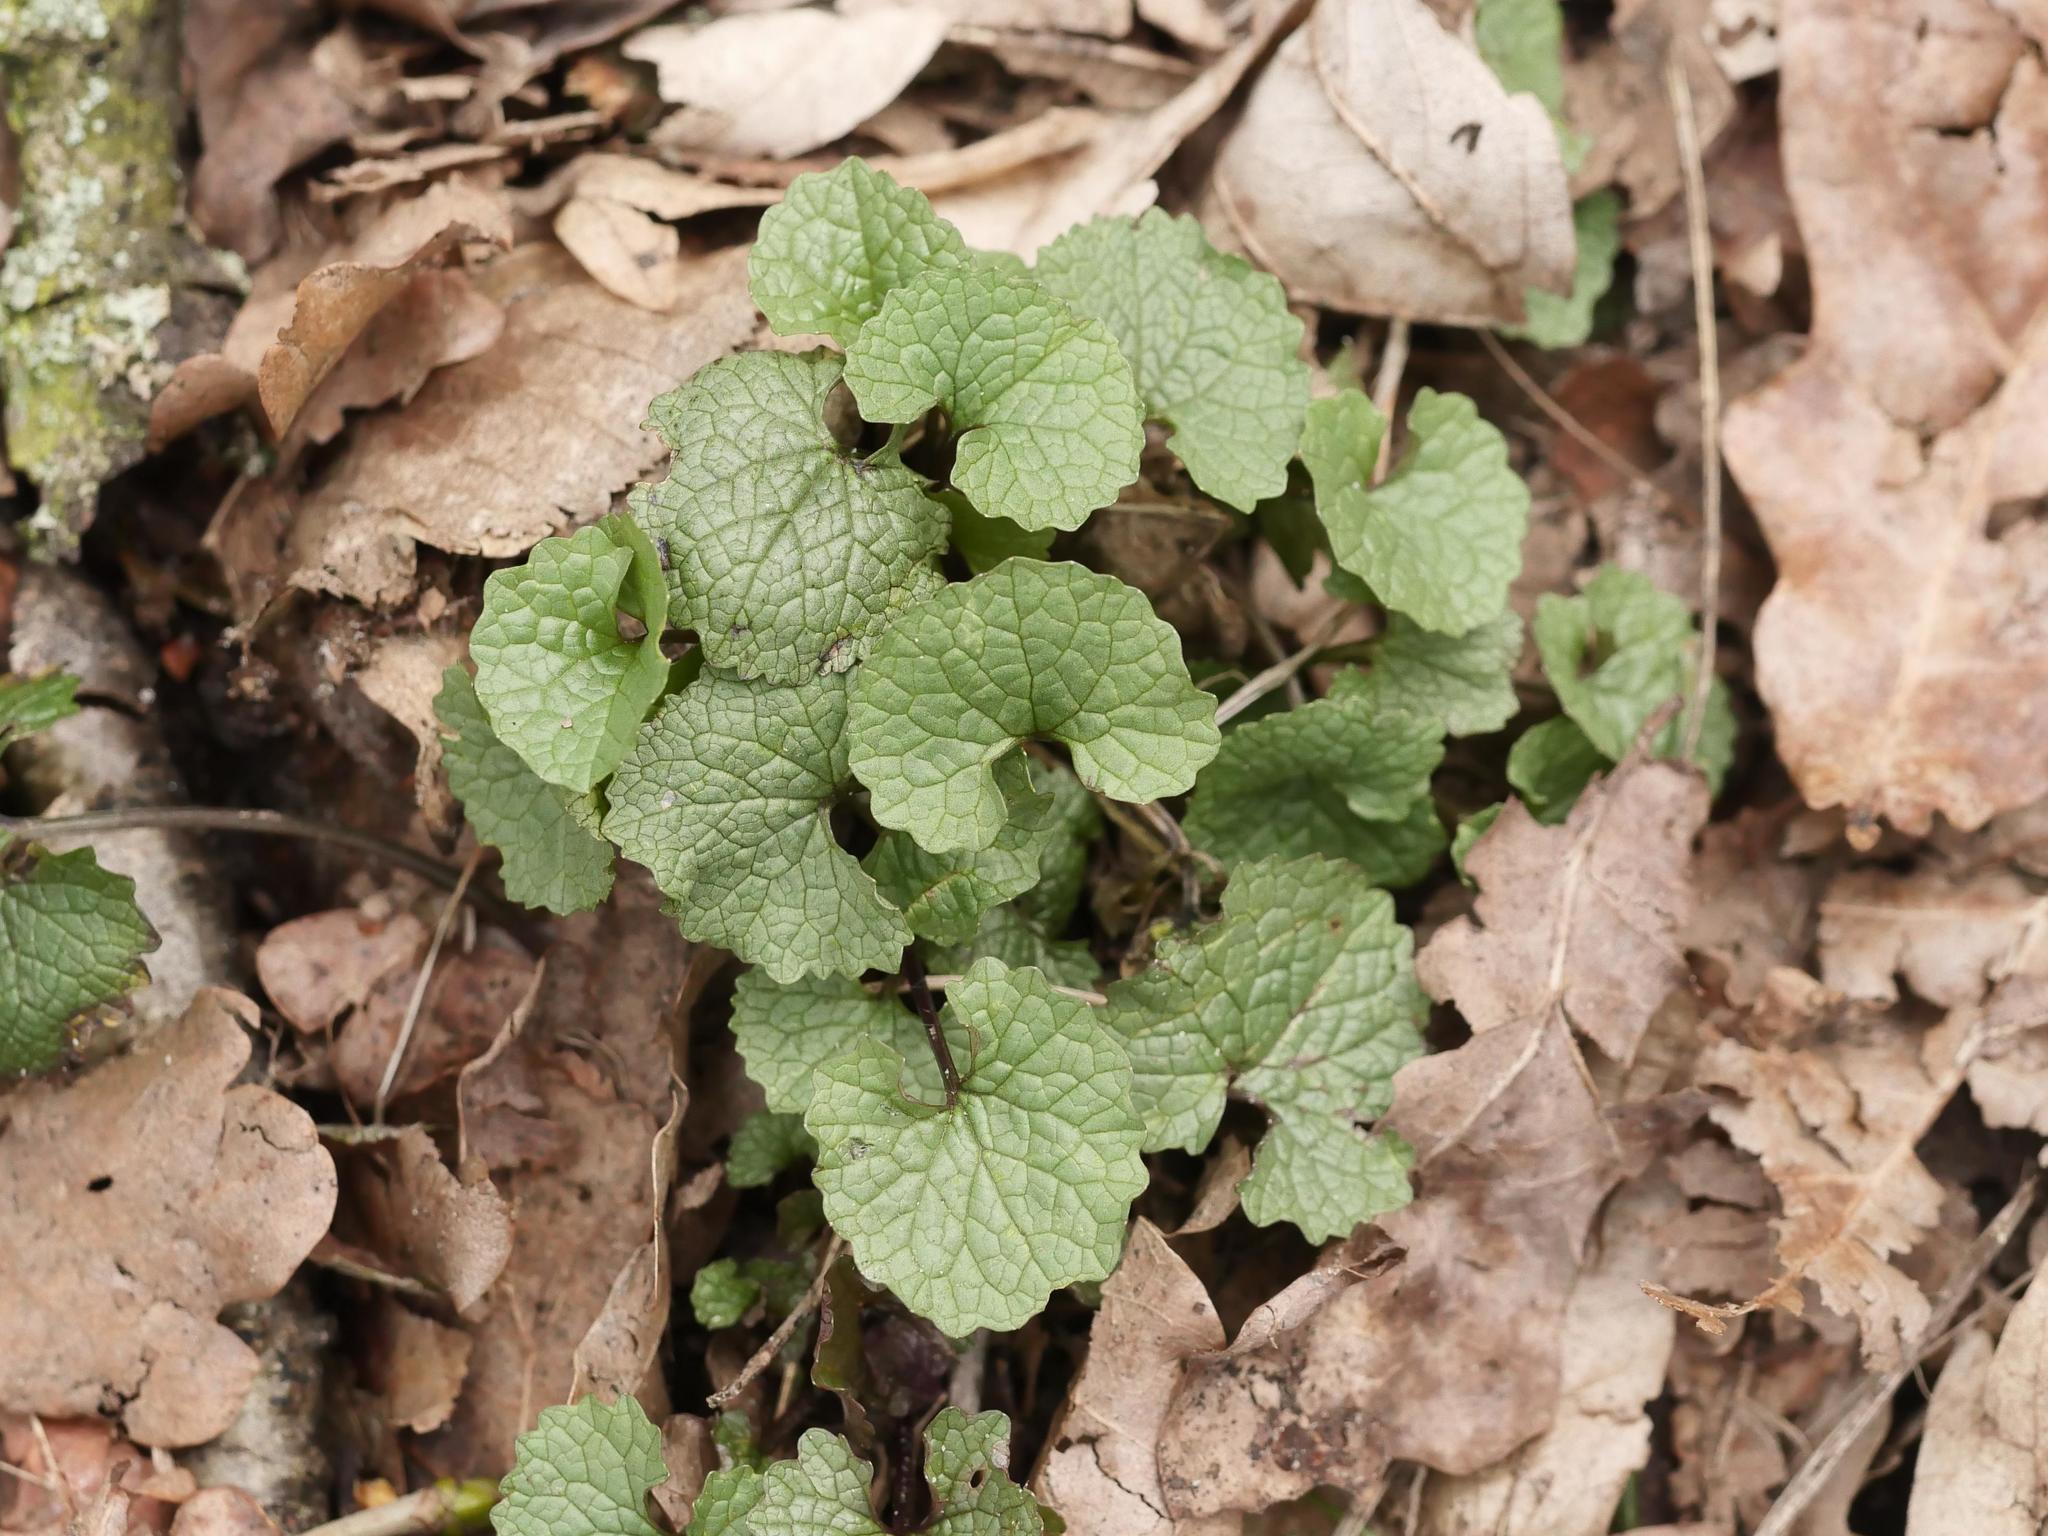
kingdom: Plantae
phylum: Tracheophyta
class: Magnoliopsida
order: Brassicales
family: Brassicaceae
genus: Alliaria
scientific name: Alliaria petiolata
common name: Garlic mustard
